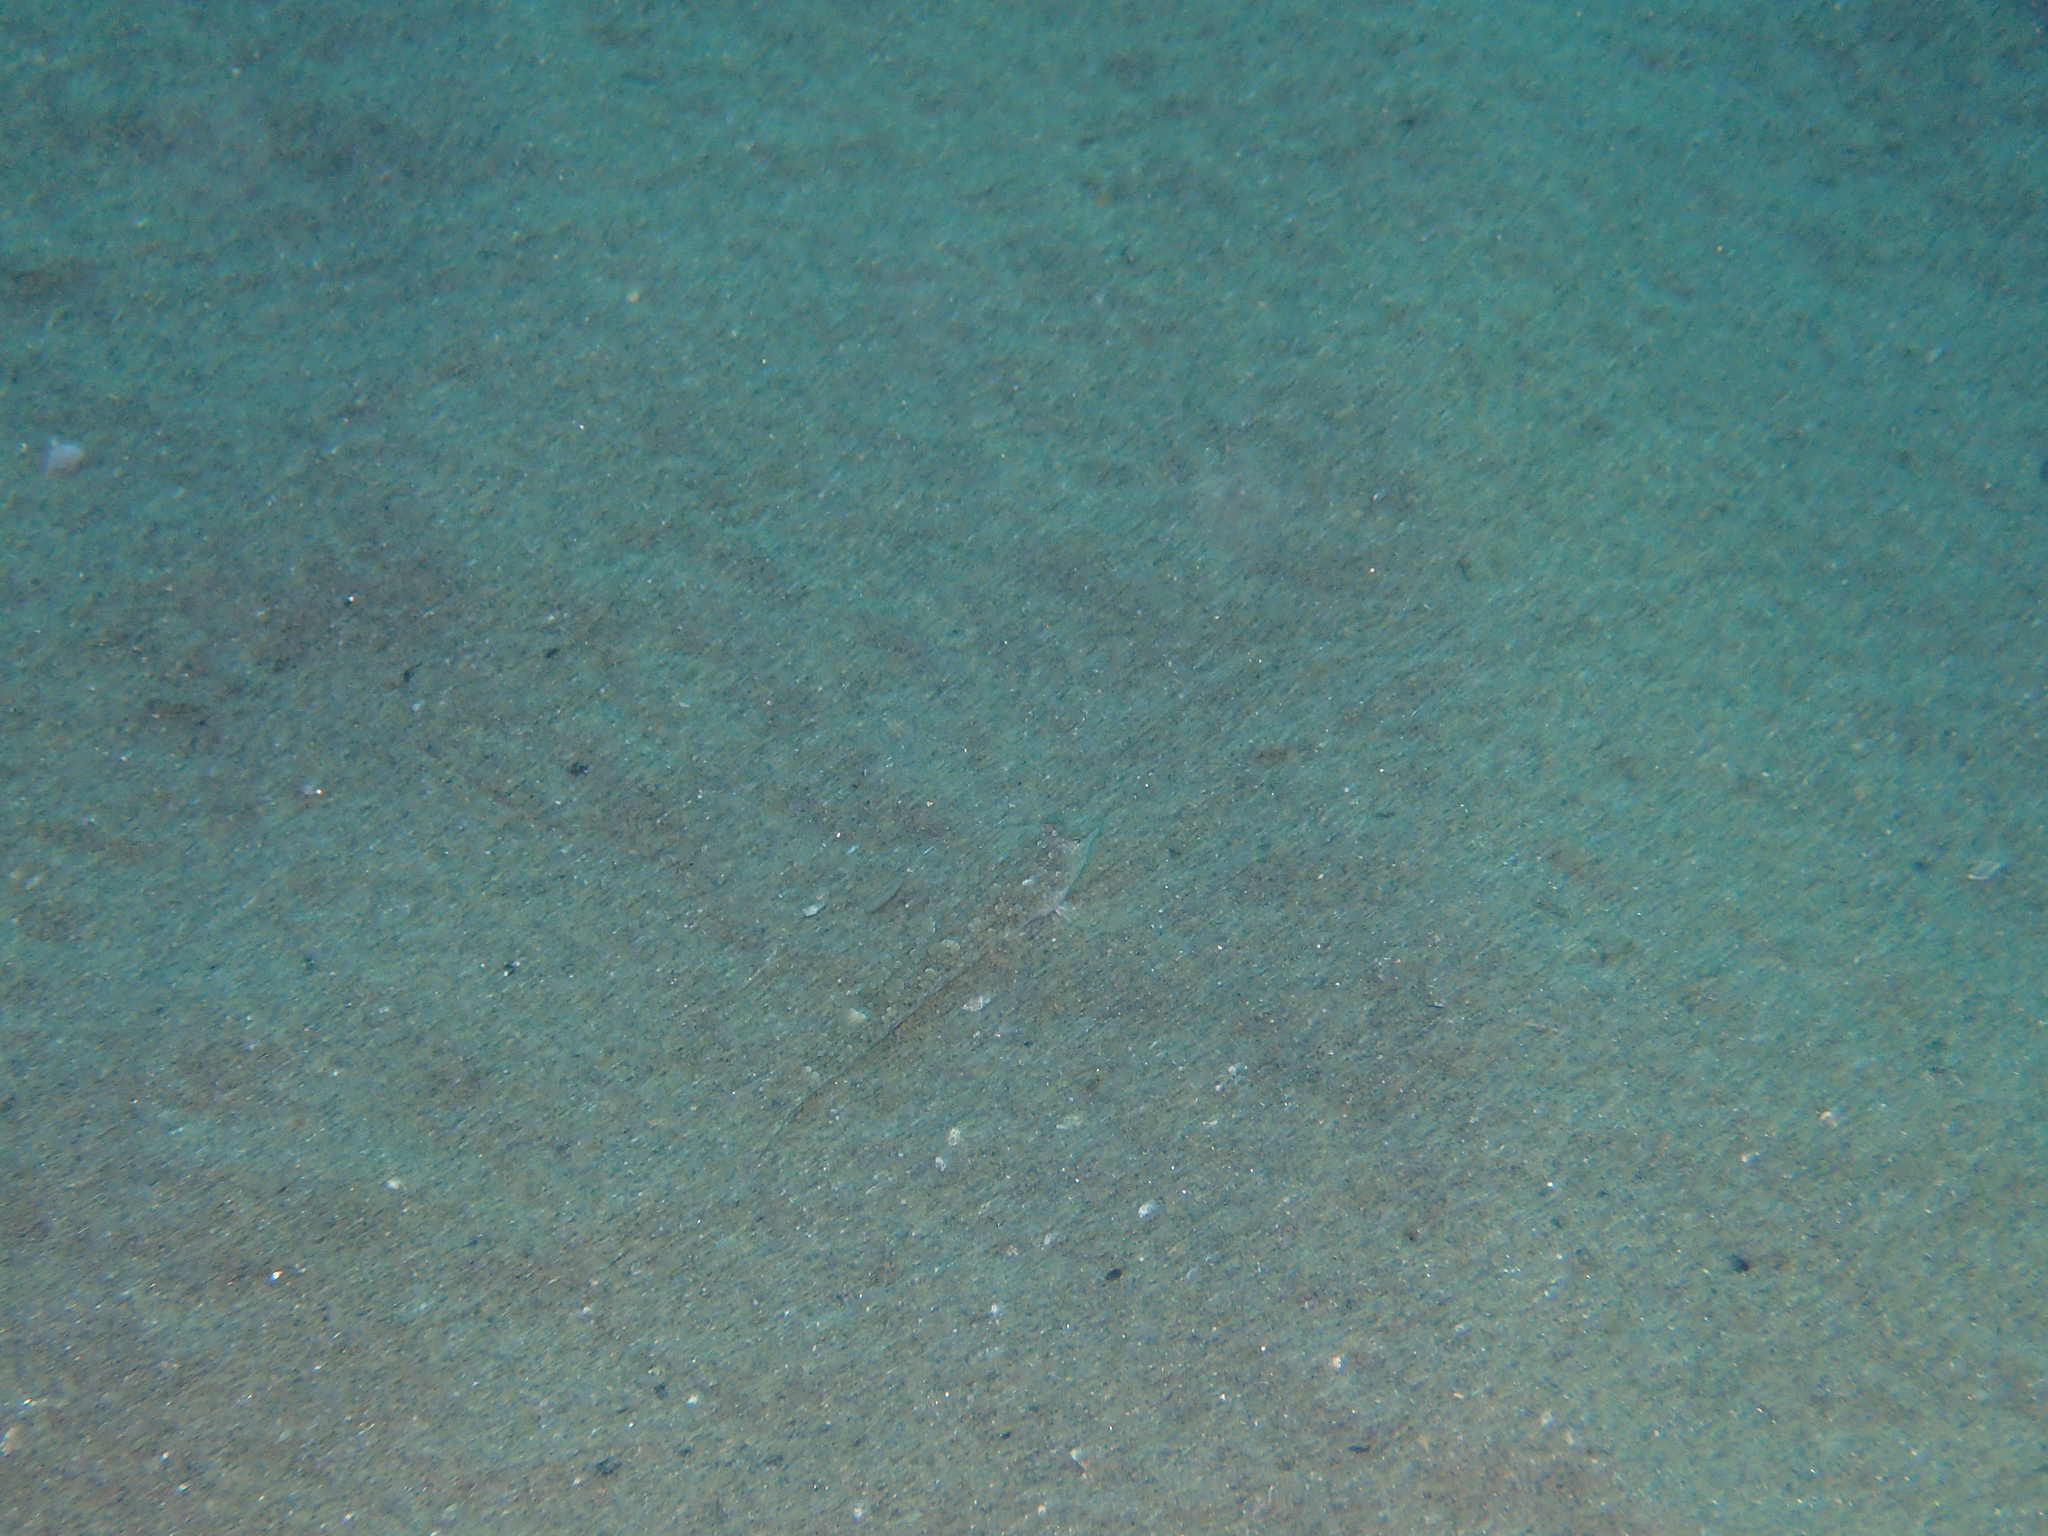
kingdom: Animalia
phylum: Chordata
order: Perciformes
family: Callionymidae
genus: Callionymus
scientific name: Callionymus risso
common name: Risso’s dragonet
